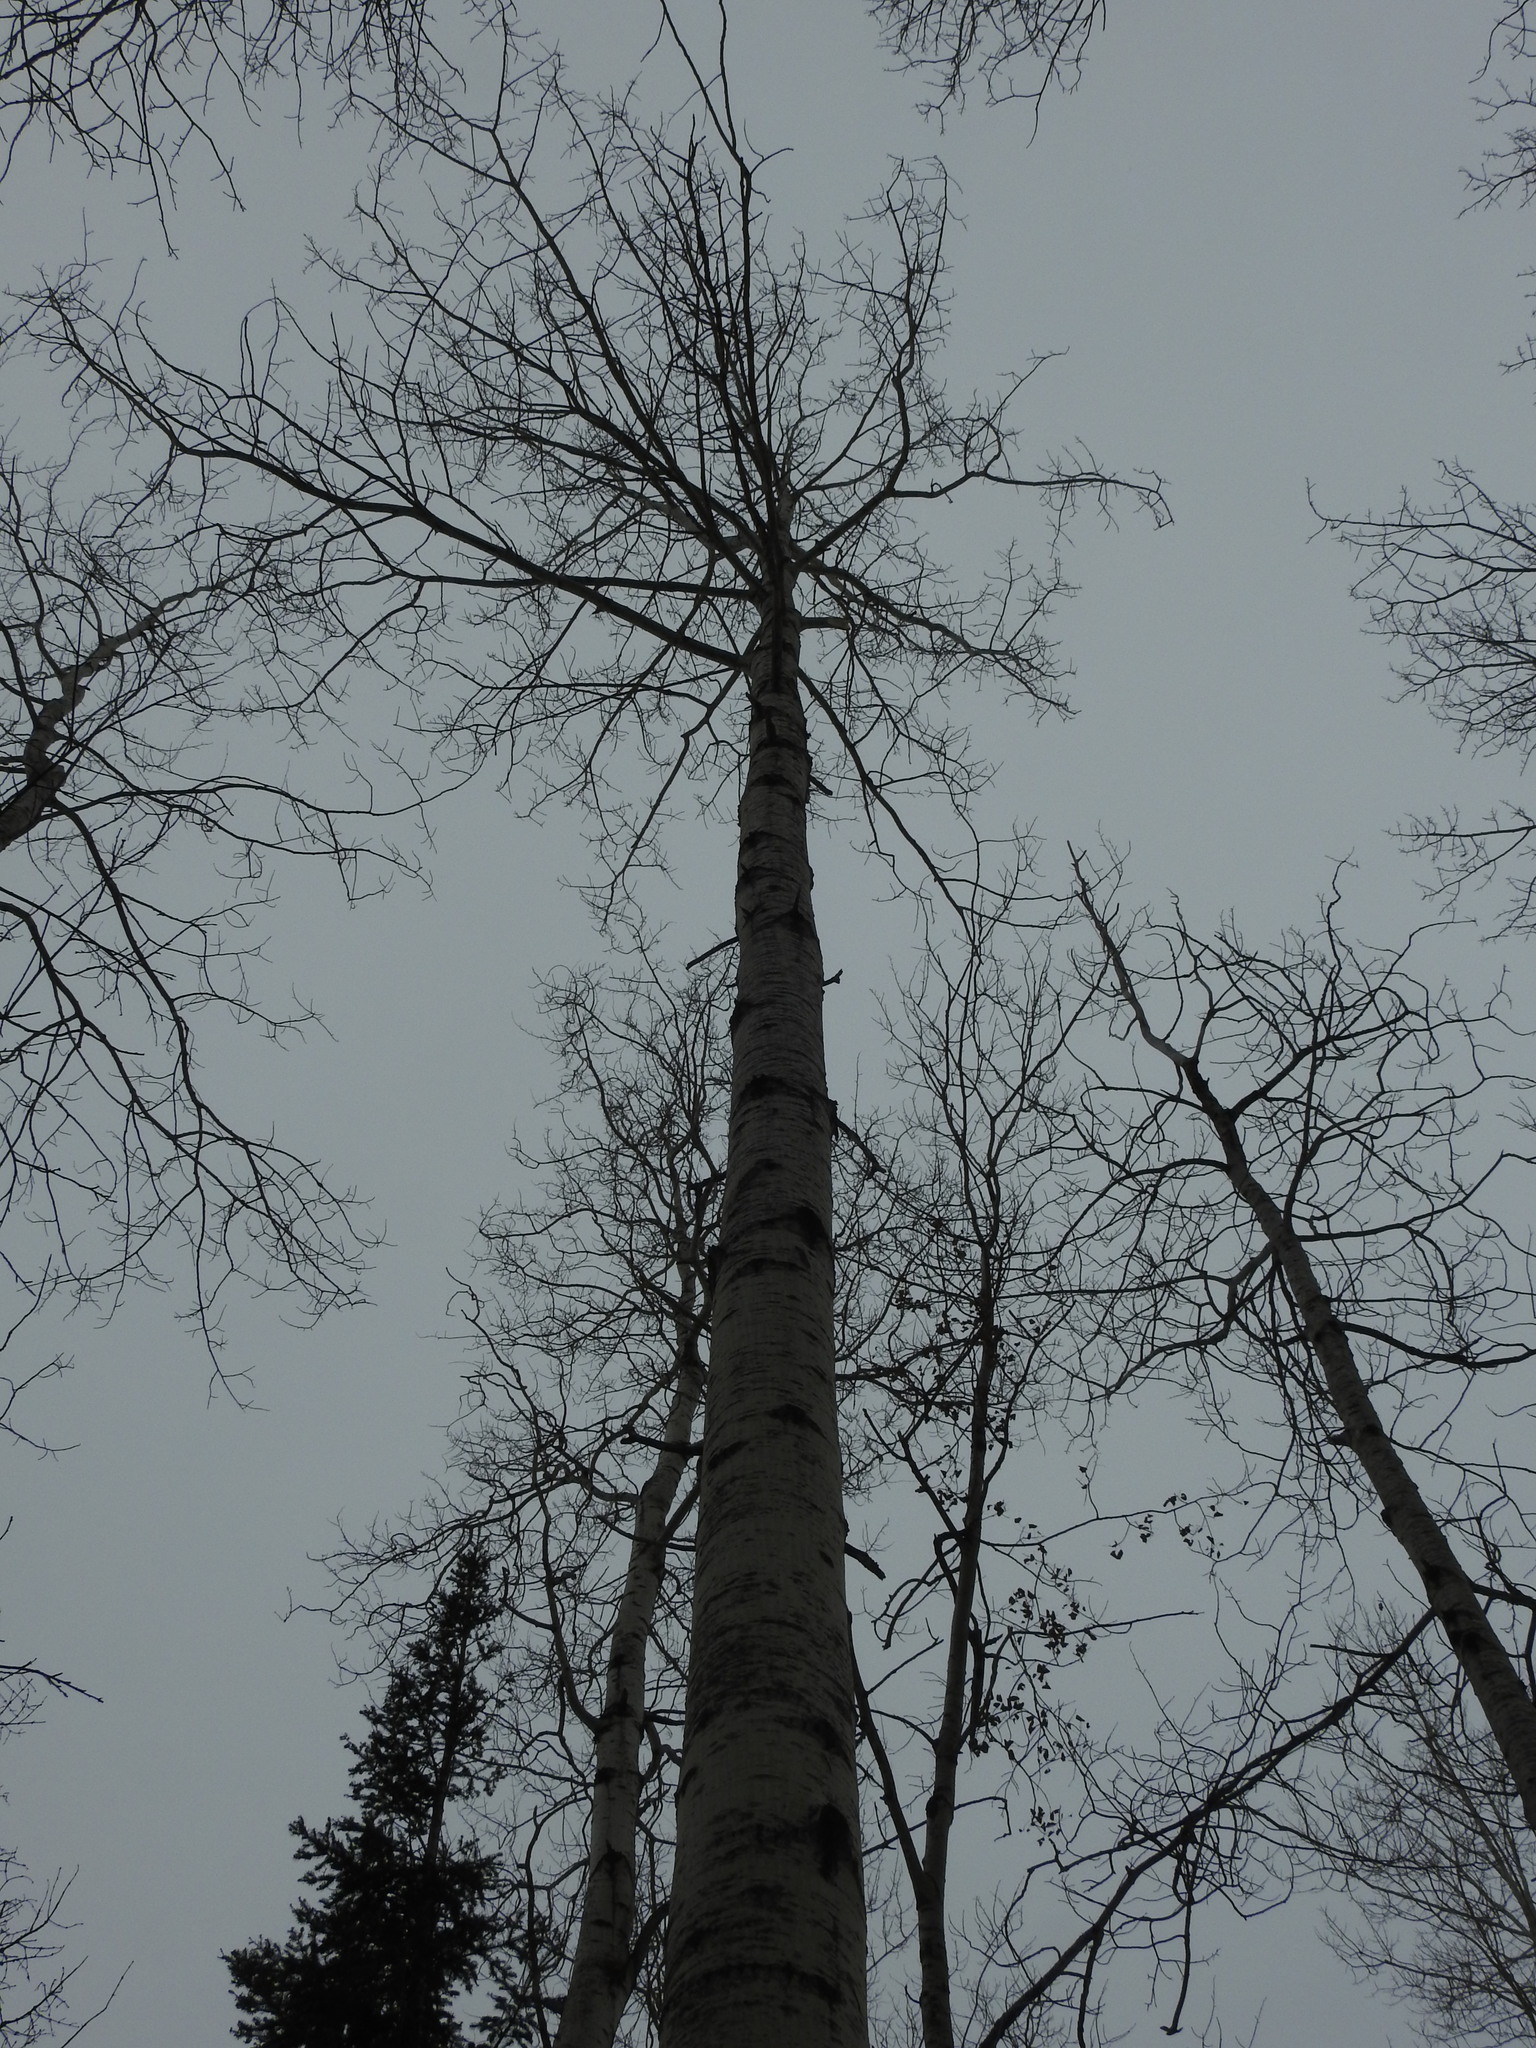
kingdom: Plantae
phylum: Tracheophyta
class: Magnoliopsida
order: Malpighiales
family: Salicaceae
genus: Populus
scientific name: Populus tremuloides
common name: Quaking aspen
